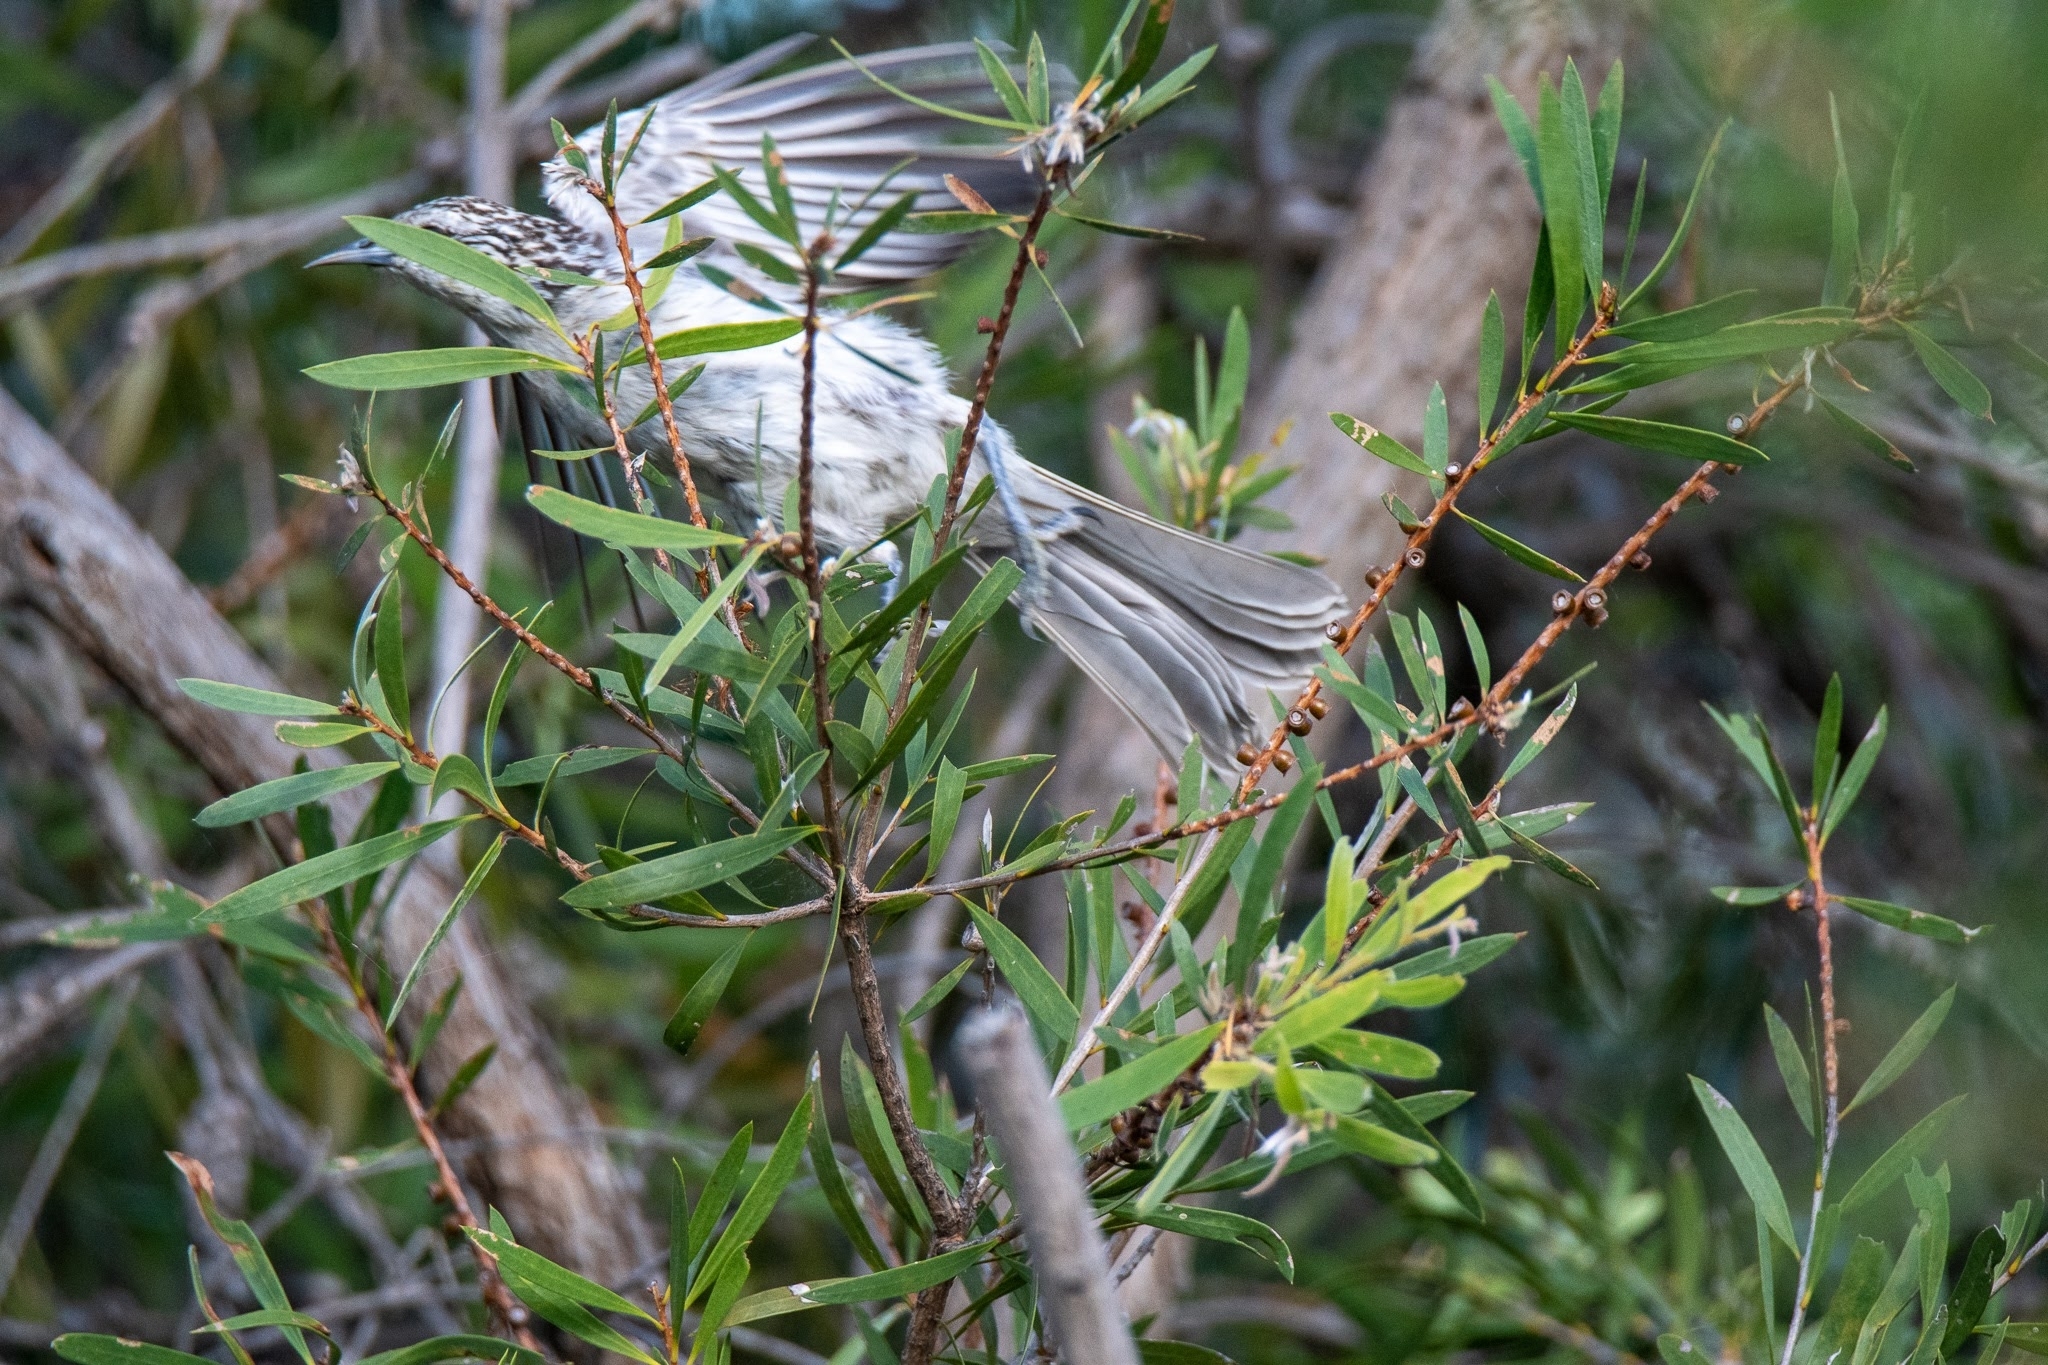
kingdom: Animalia
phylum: Chordata
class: Aves
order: Passeriformes
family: Meliphagidae
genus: Plectorhyncha
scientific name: Plectorhyncha lanceolata
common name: Striped honeyeater
